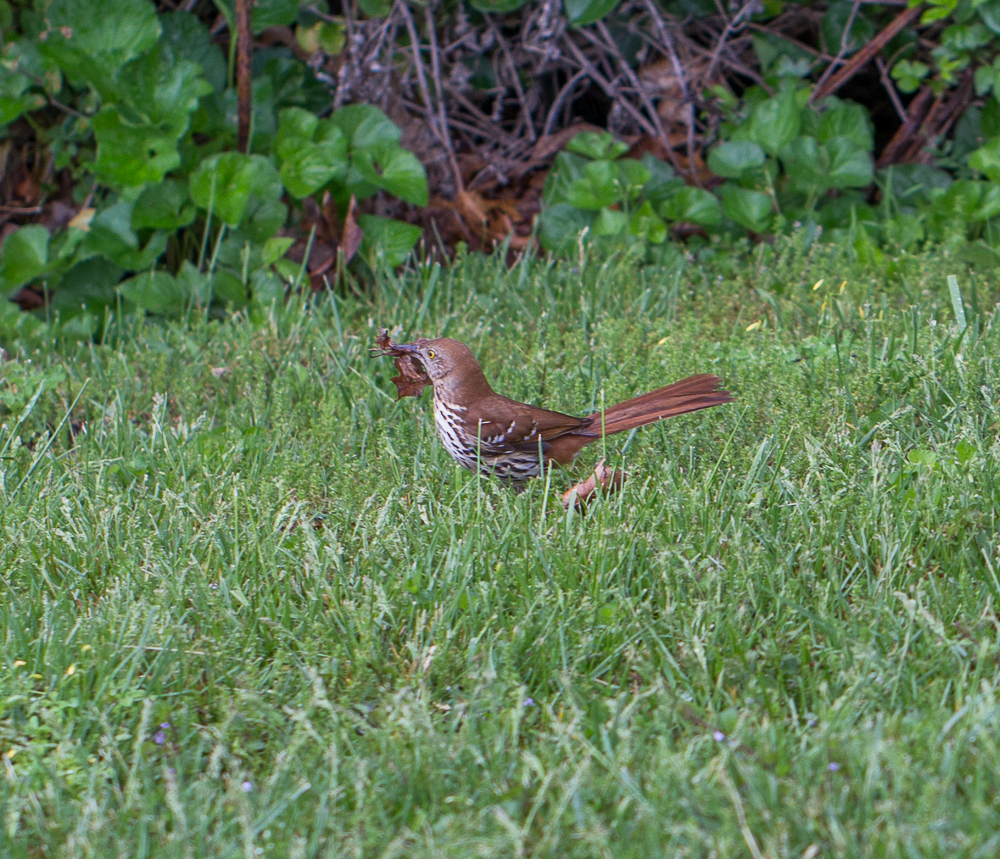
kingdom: Animalia
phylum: Chordata
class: Aves
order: Passeriformes
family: Mimidae
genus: Toxostoma
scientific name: Toxostoma rufum
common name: Brown thrasher
